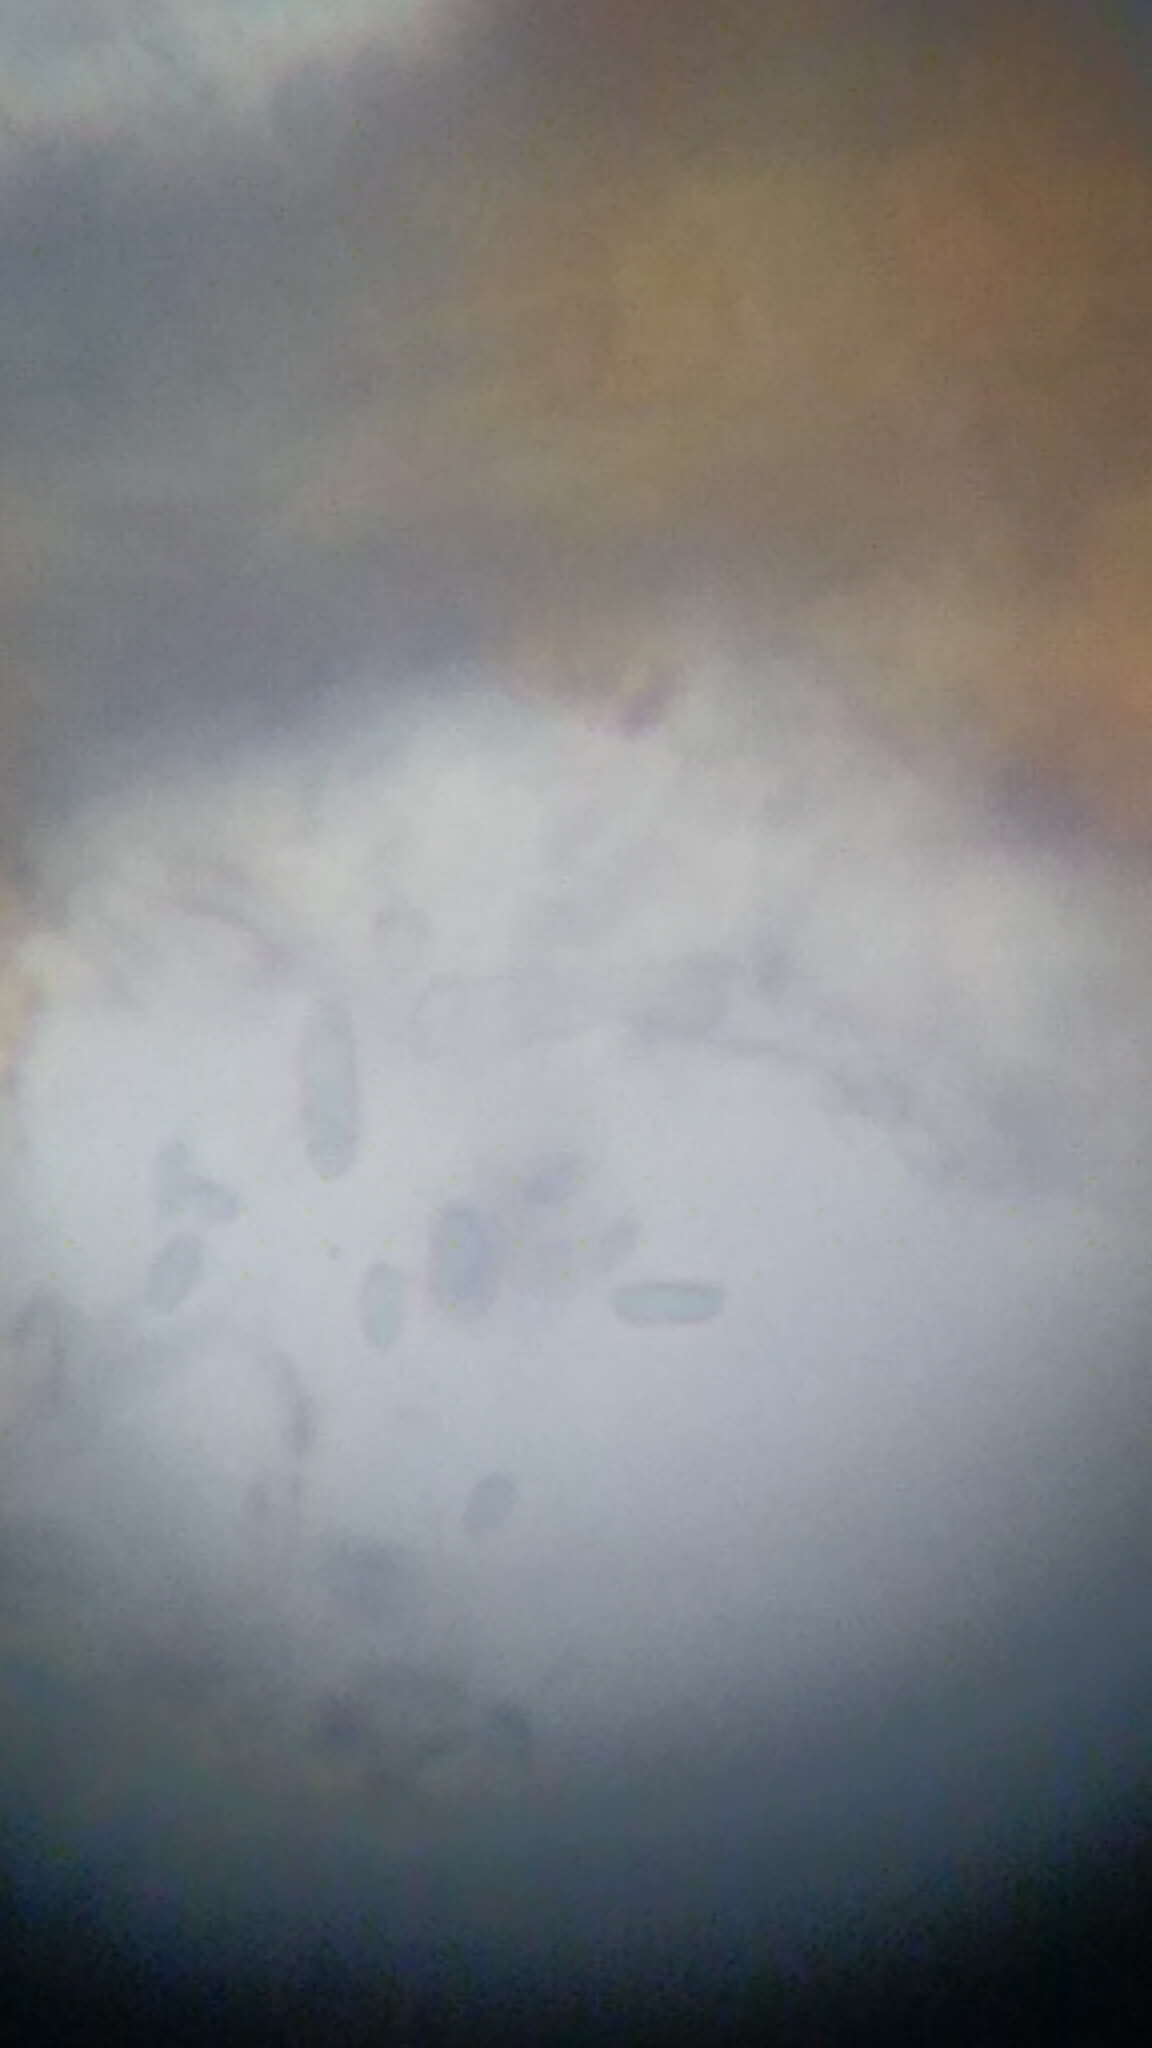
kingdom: Fungi
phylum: Ascomycota
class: Sordariomycetes
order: Hypocreales
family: Ophiocordycipitaceae
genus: Polycephalomyces
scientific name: Polycephalomyces tomentosus
